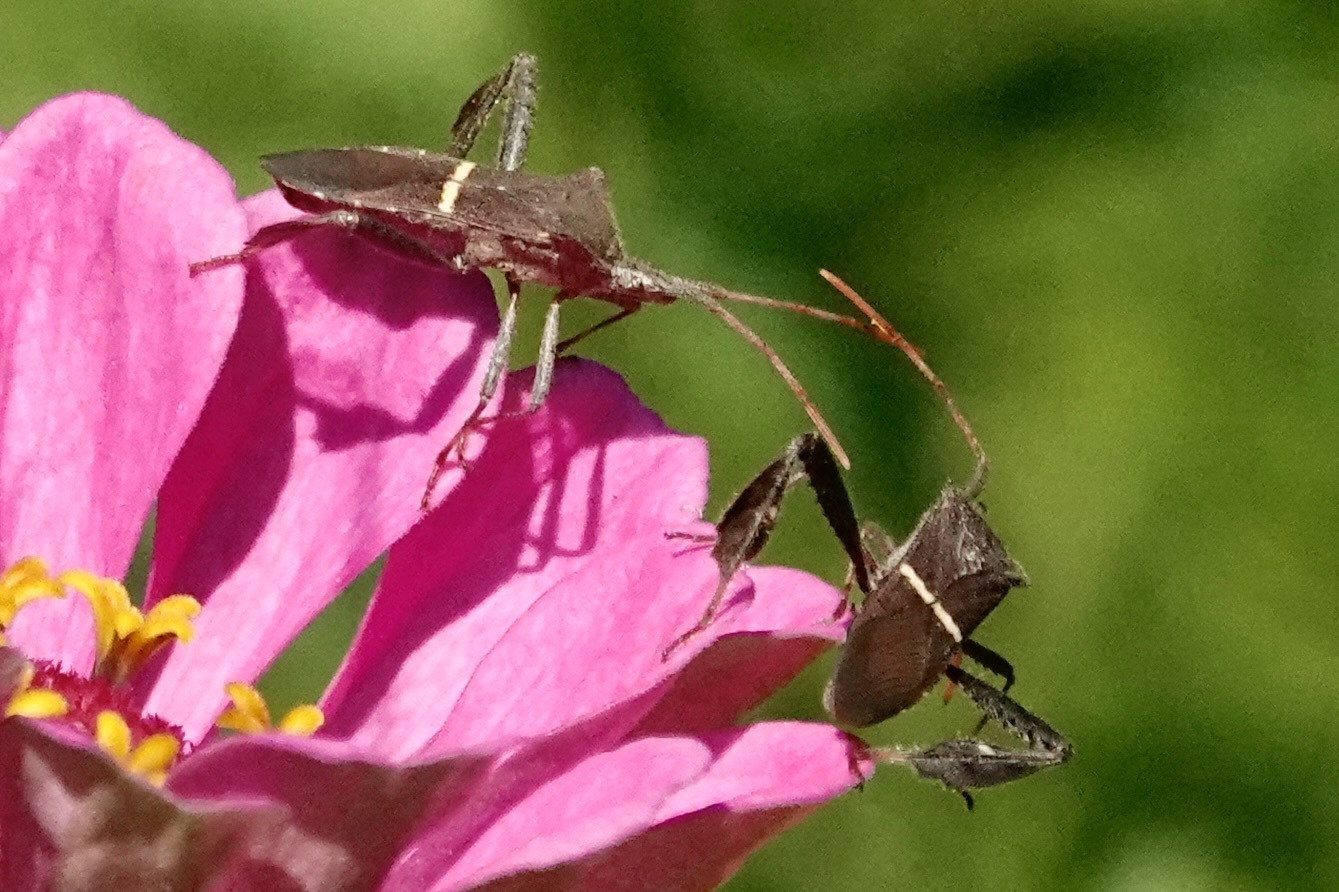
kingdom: Animalia
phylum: Arthropoda
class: Insecta
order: Hemiptera
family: Coreidae
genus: Leptoglossus
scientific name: Leptoglossus phyllopus
